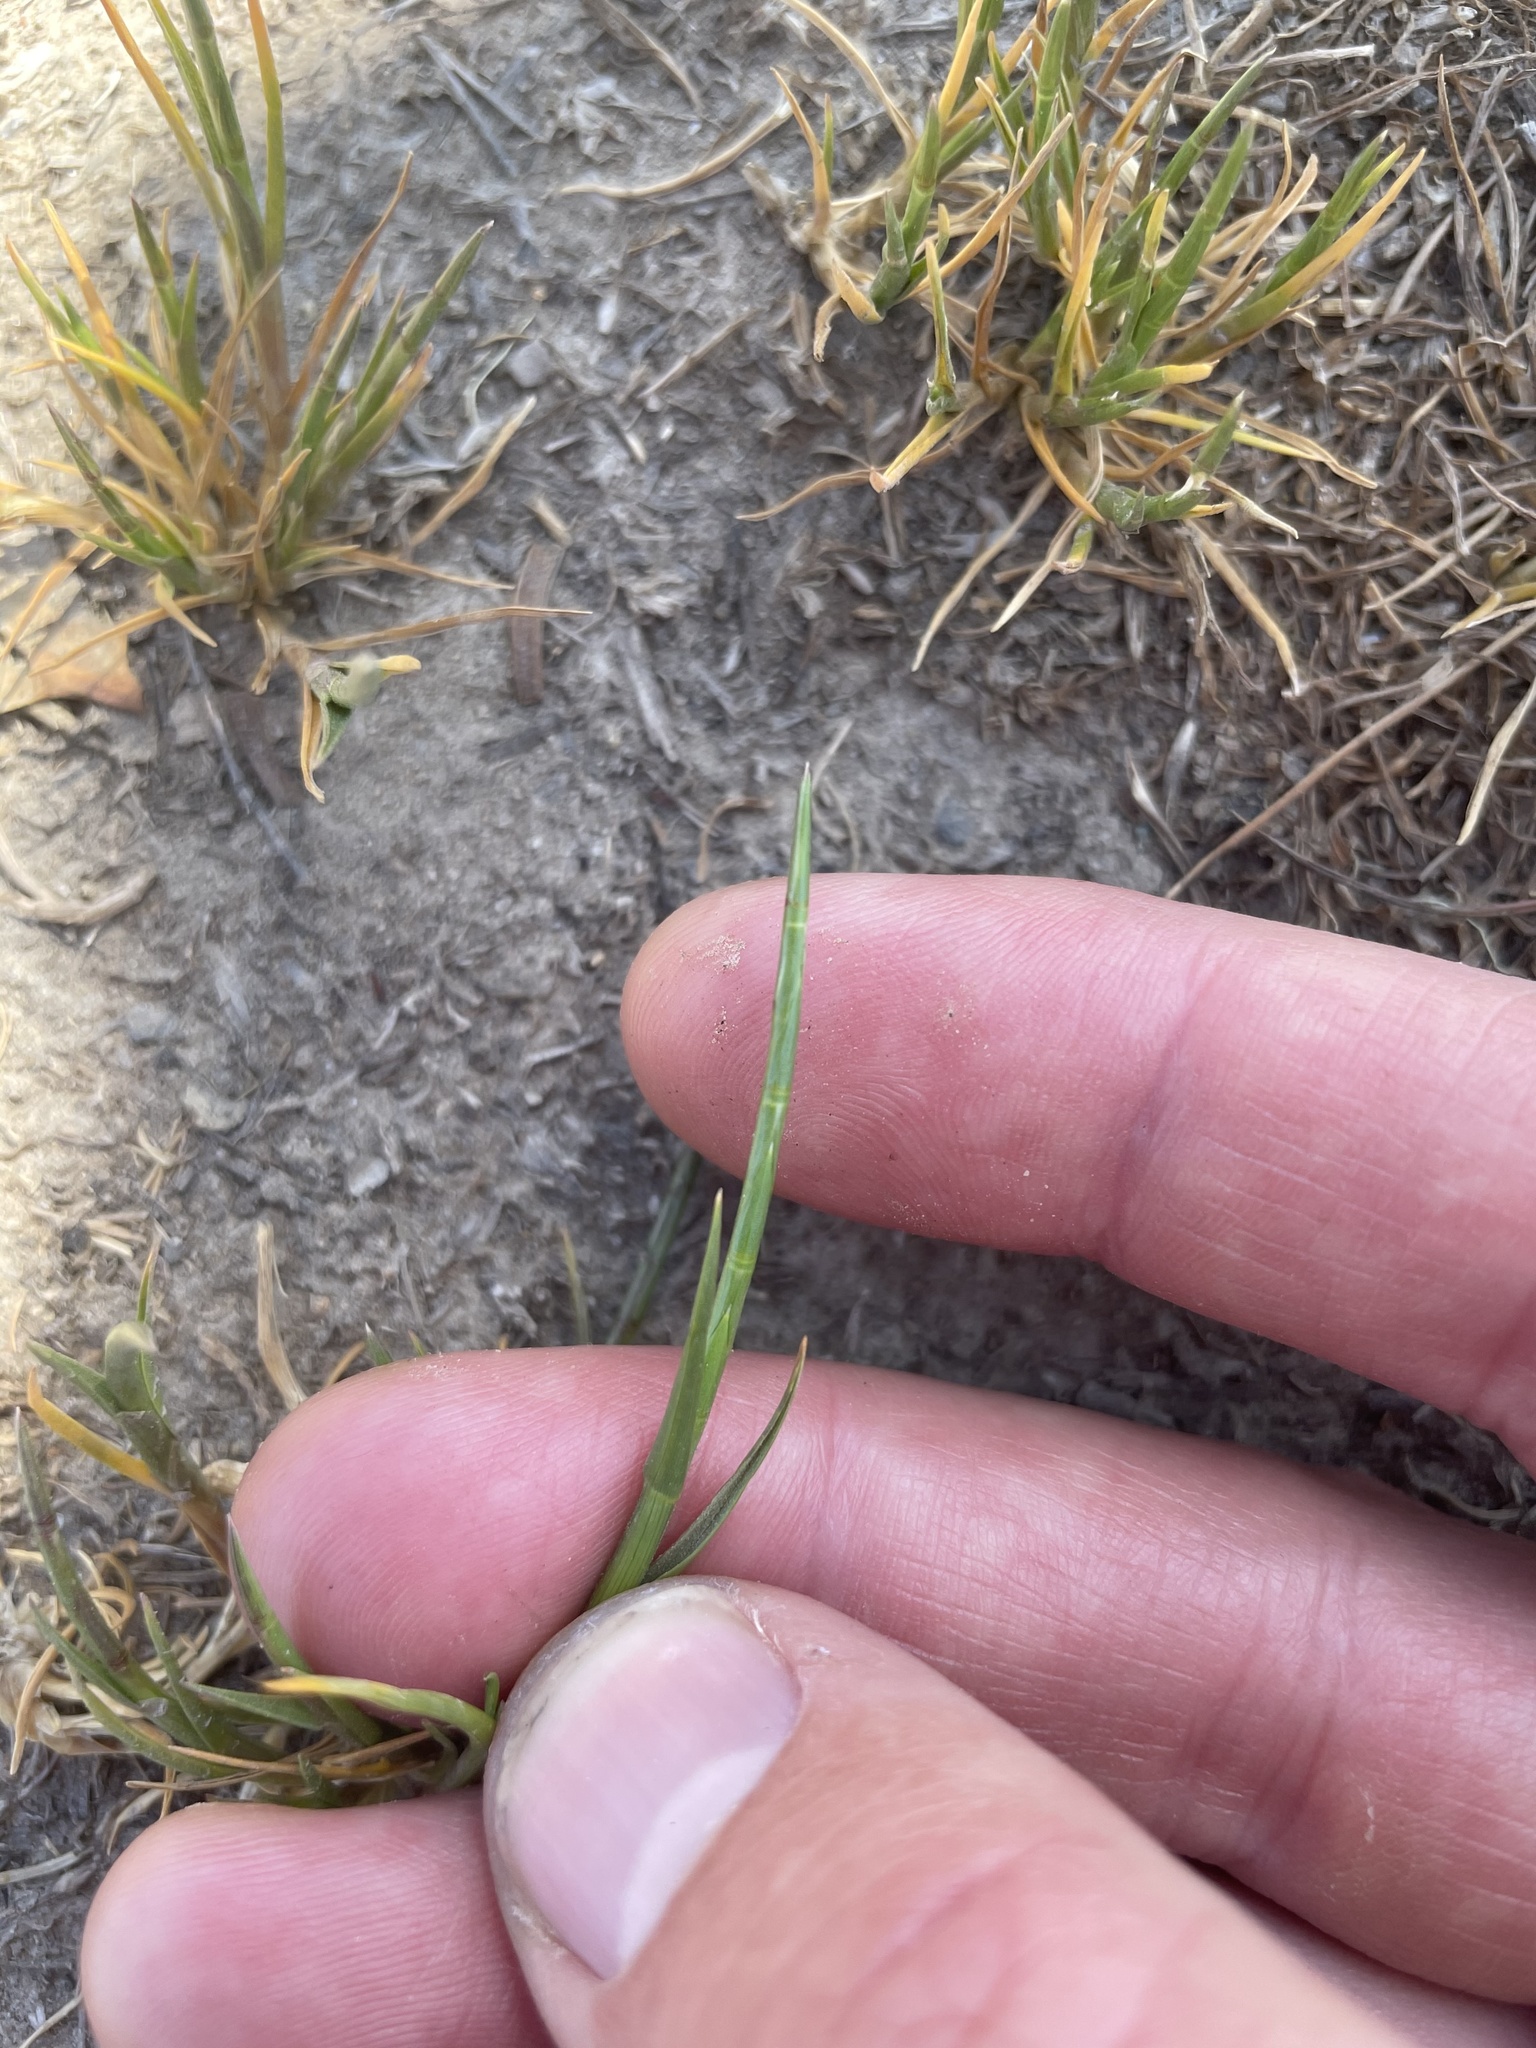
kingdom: Plantae
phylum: Tracheophyta
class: Liliopsida
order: Poales
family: Poaceae
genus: Parapholis
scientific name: Parapholis incurva
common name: Curved sicklegrass
